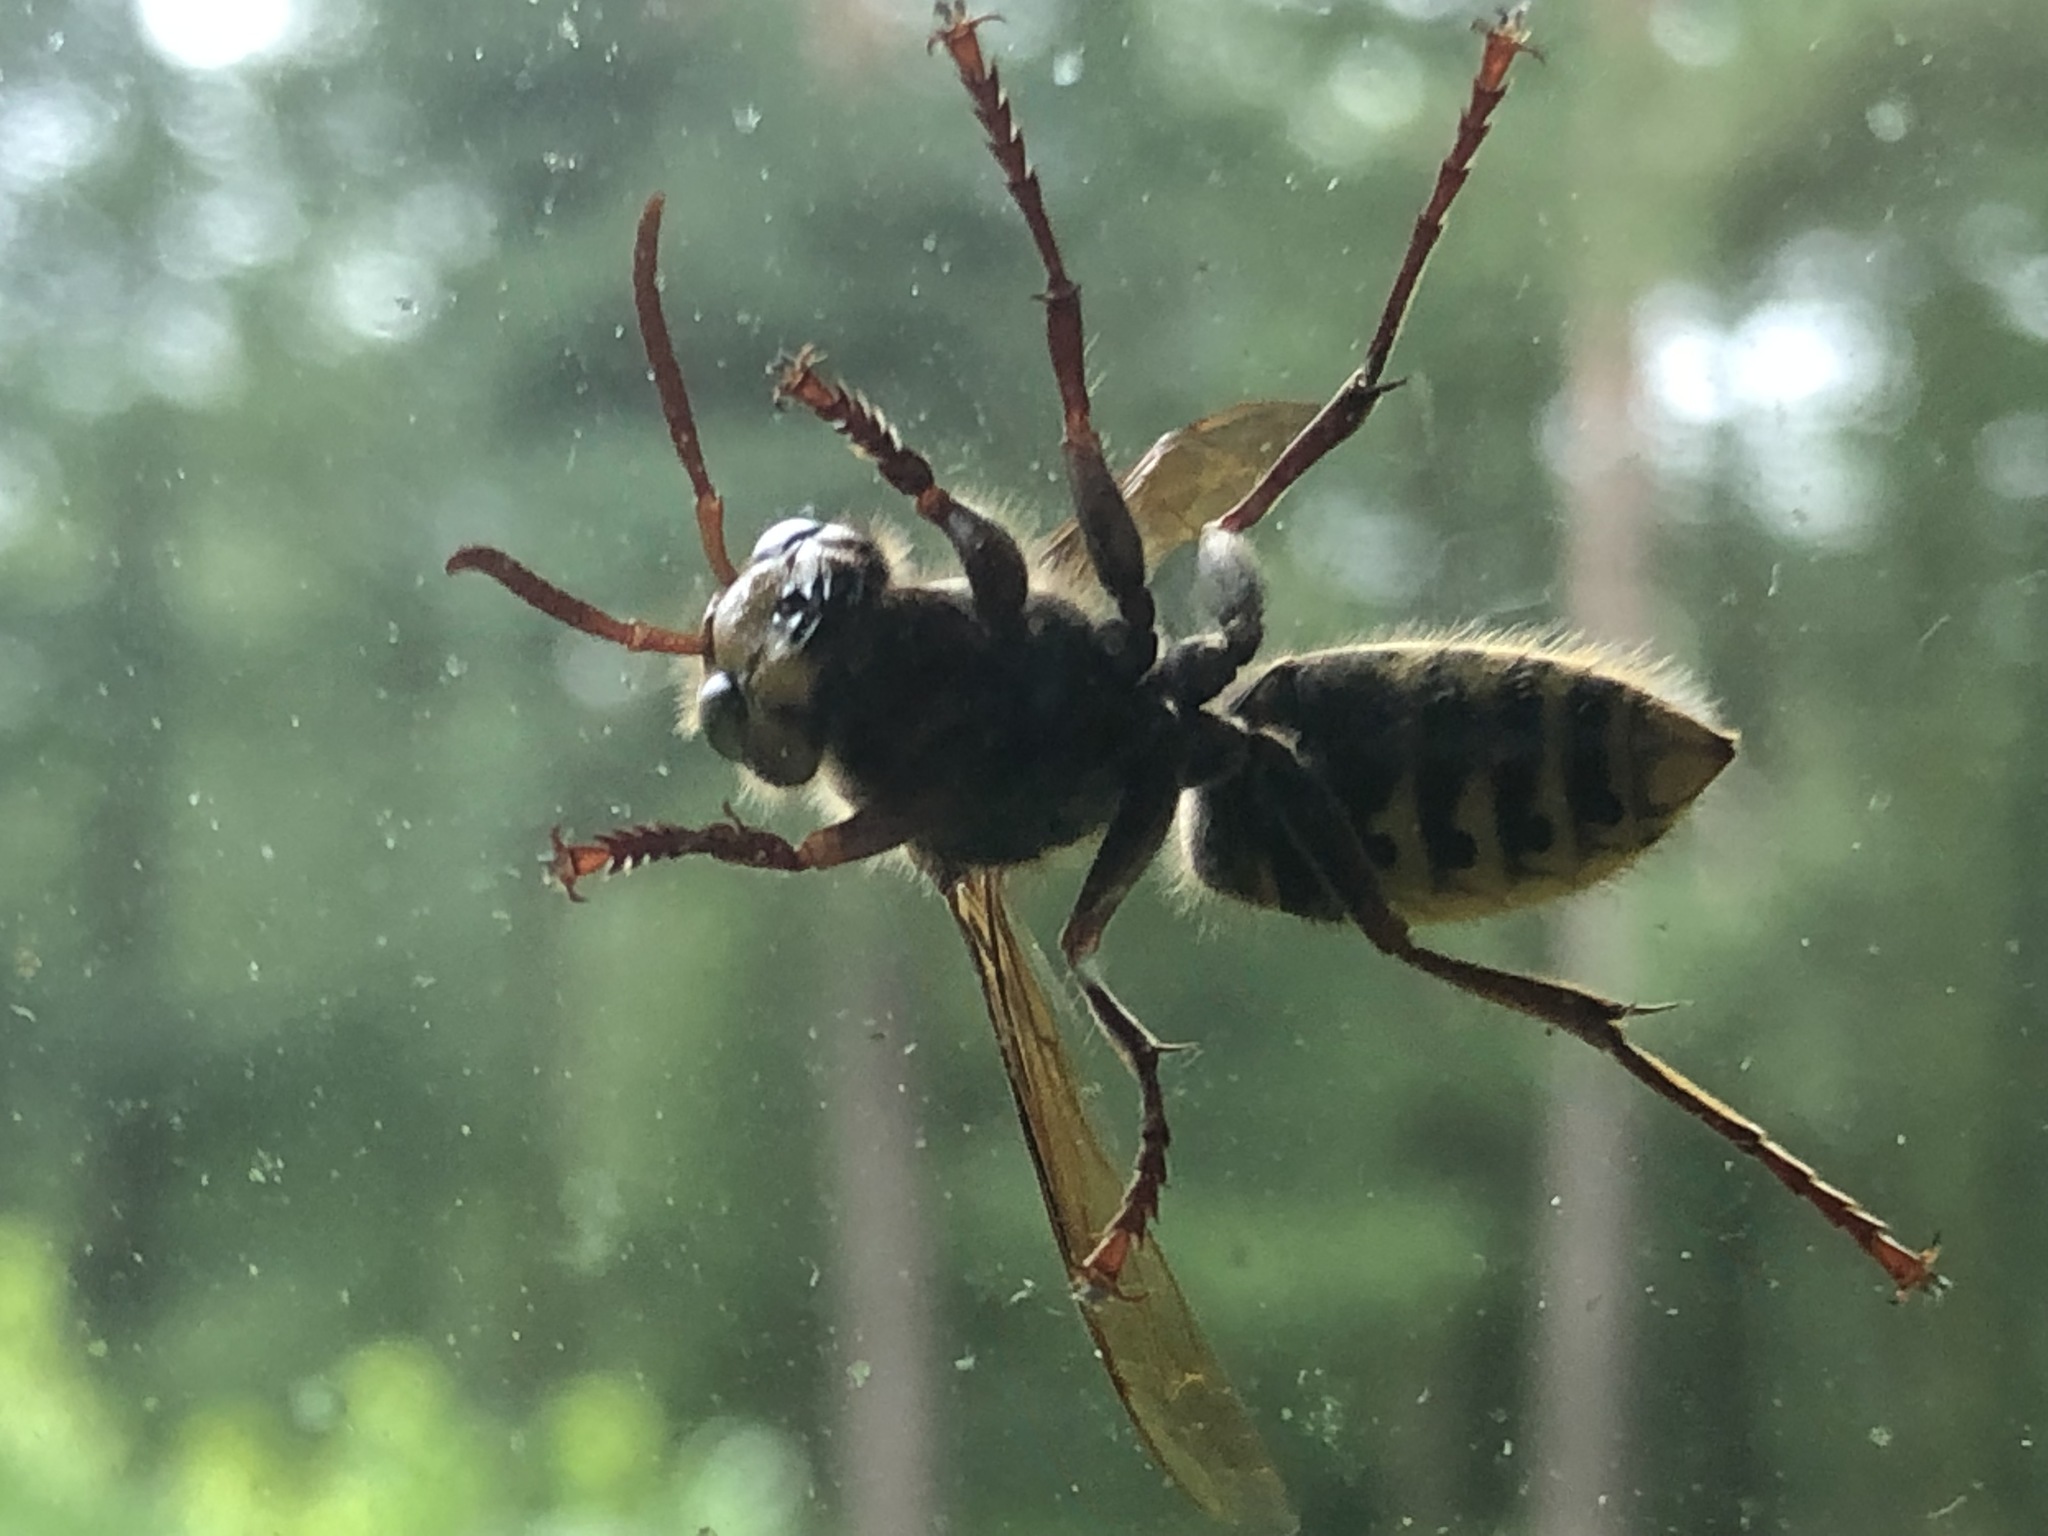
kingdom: Animalia
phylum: Arthropoda
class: Insecta
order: Hymenoptera
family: Vespidae
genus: Vespa
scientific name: Vespa crabro
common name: Hornet
